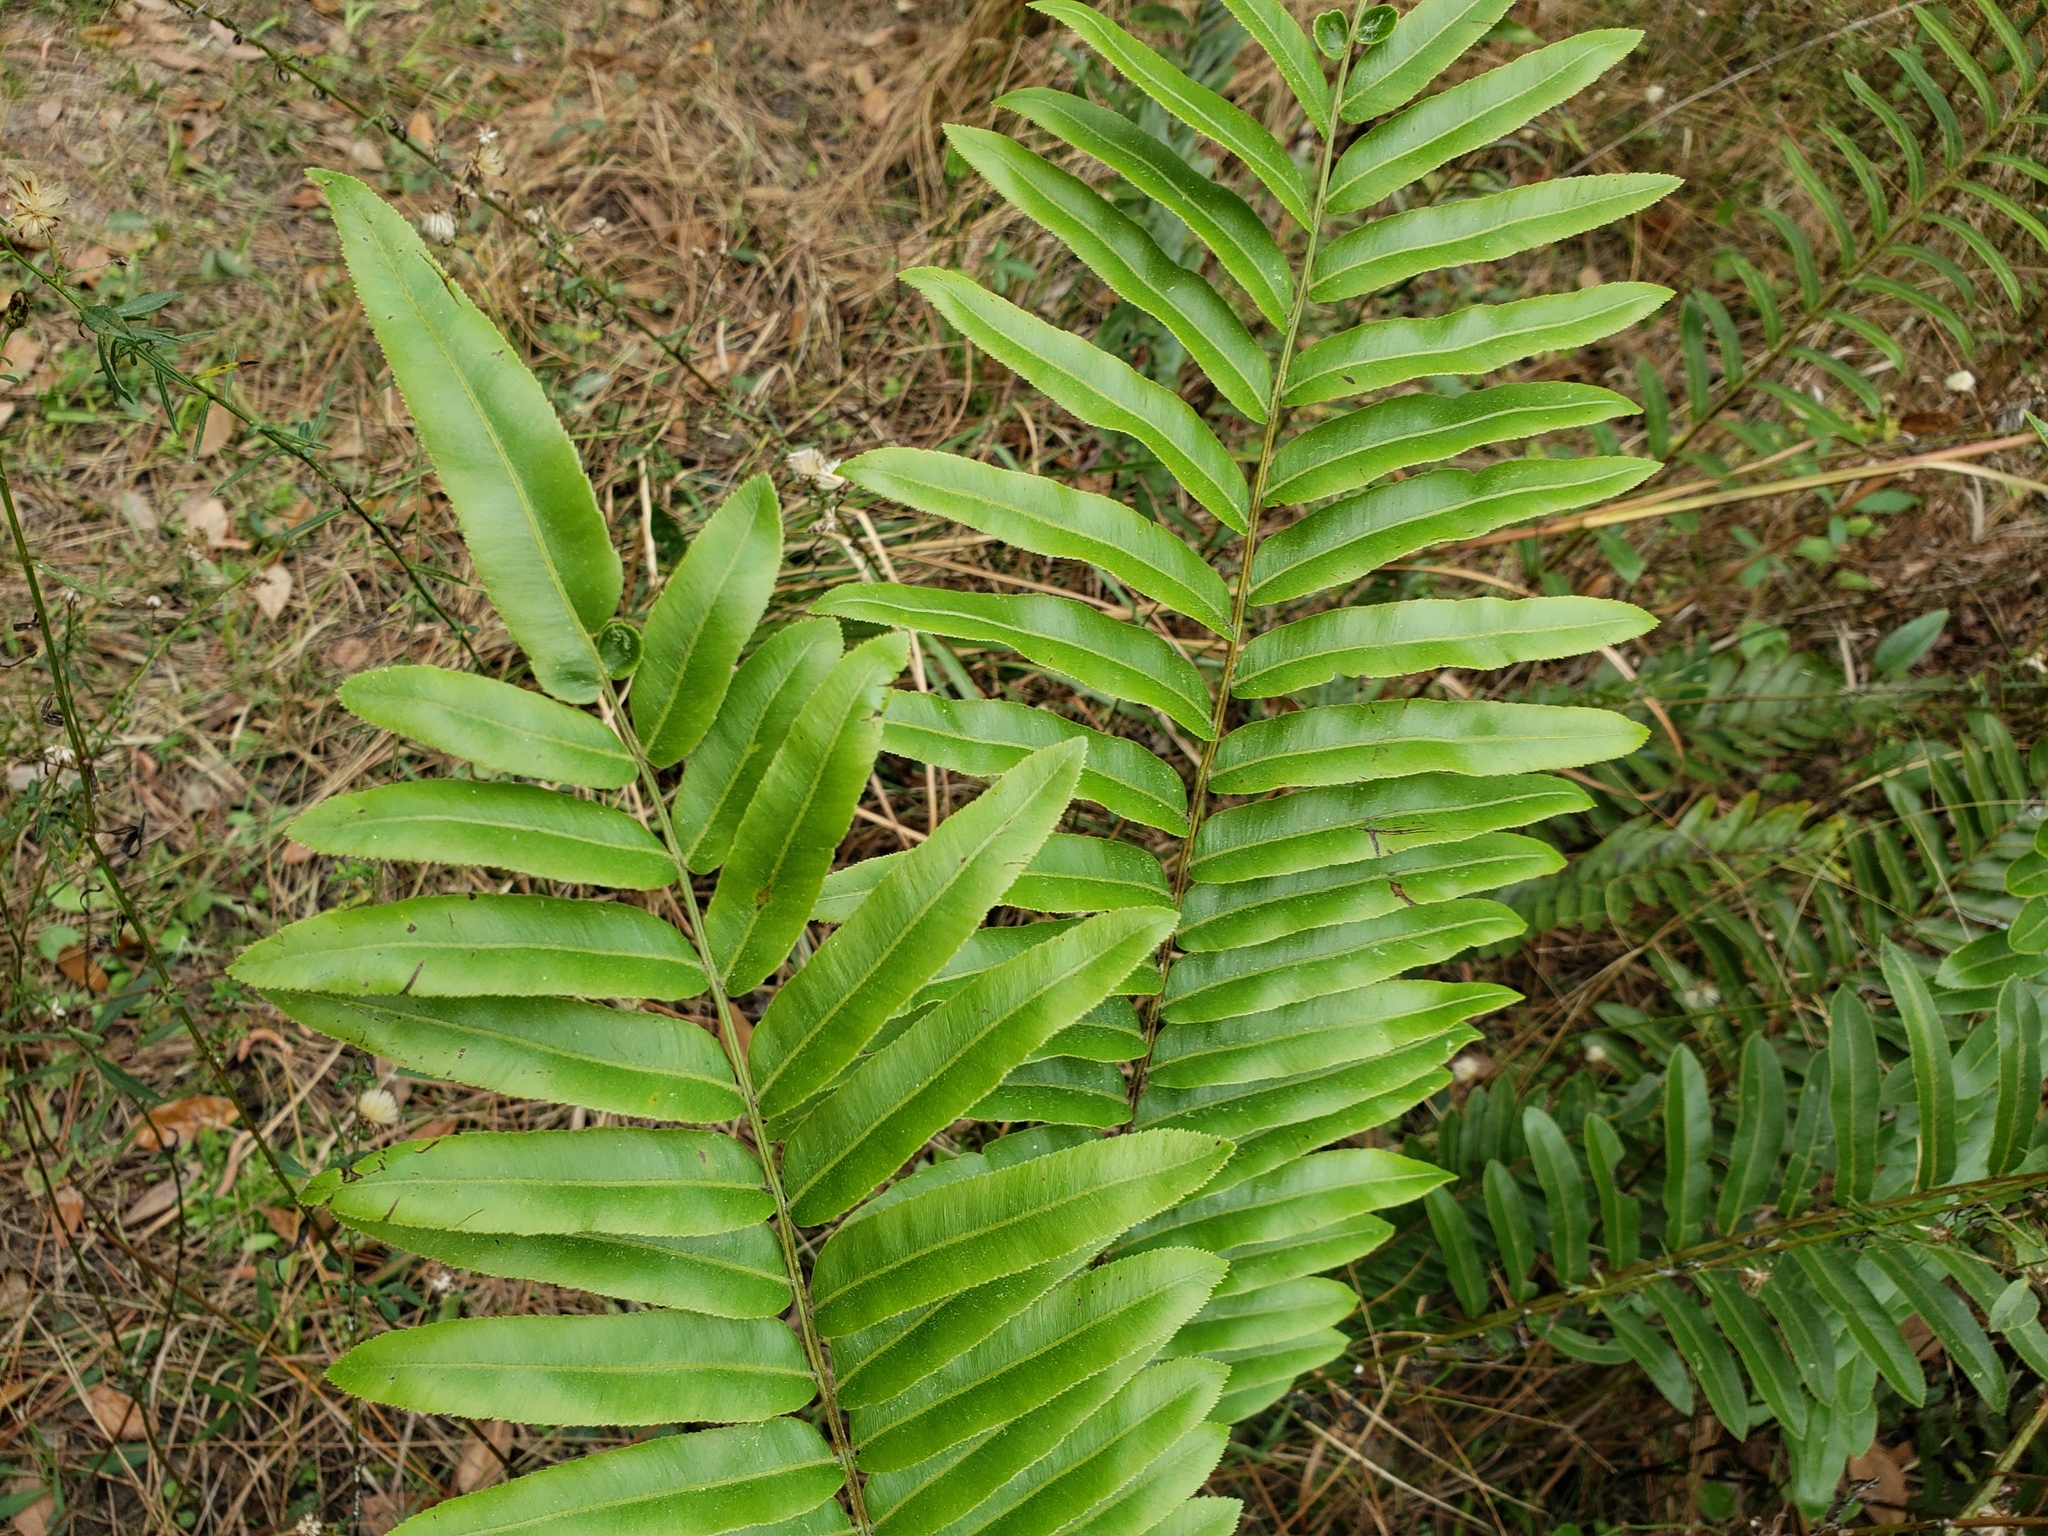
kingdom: Plantae
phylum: Tracheophyta
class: Polypodiopsida
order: Polypodiales
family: Blechnaceae
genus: Telmatoblechnum
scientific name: Telmatoblechnum serrulatum
